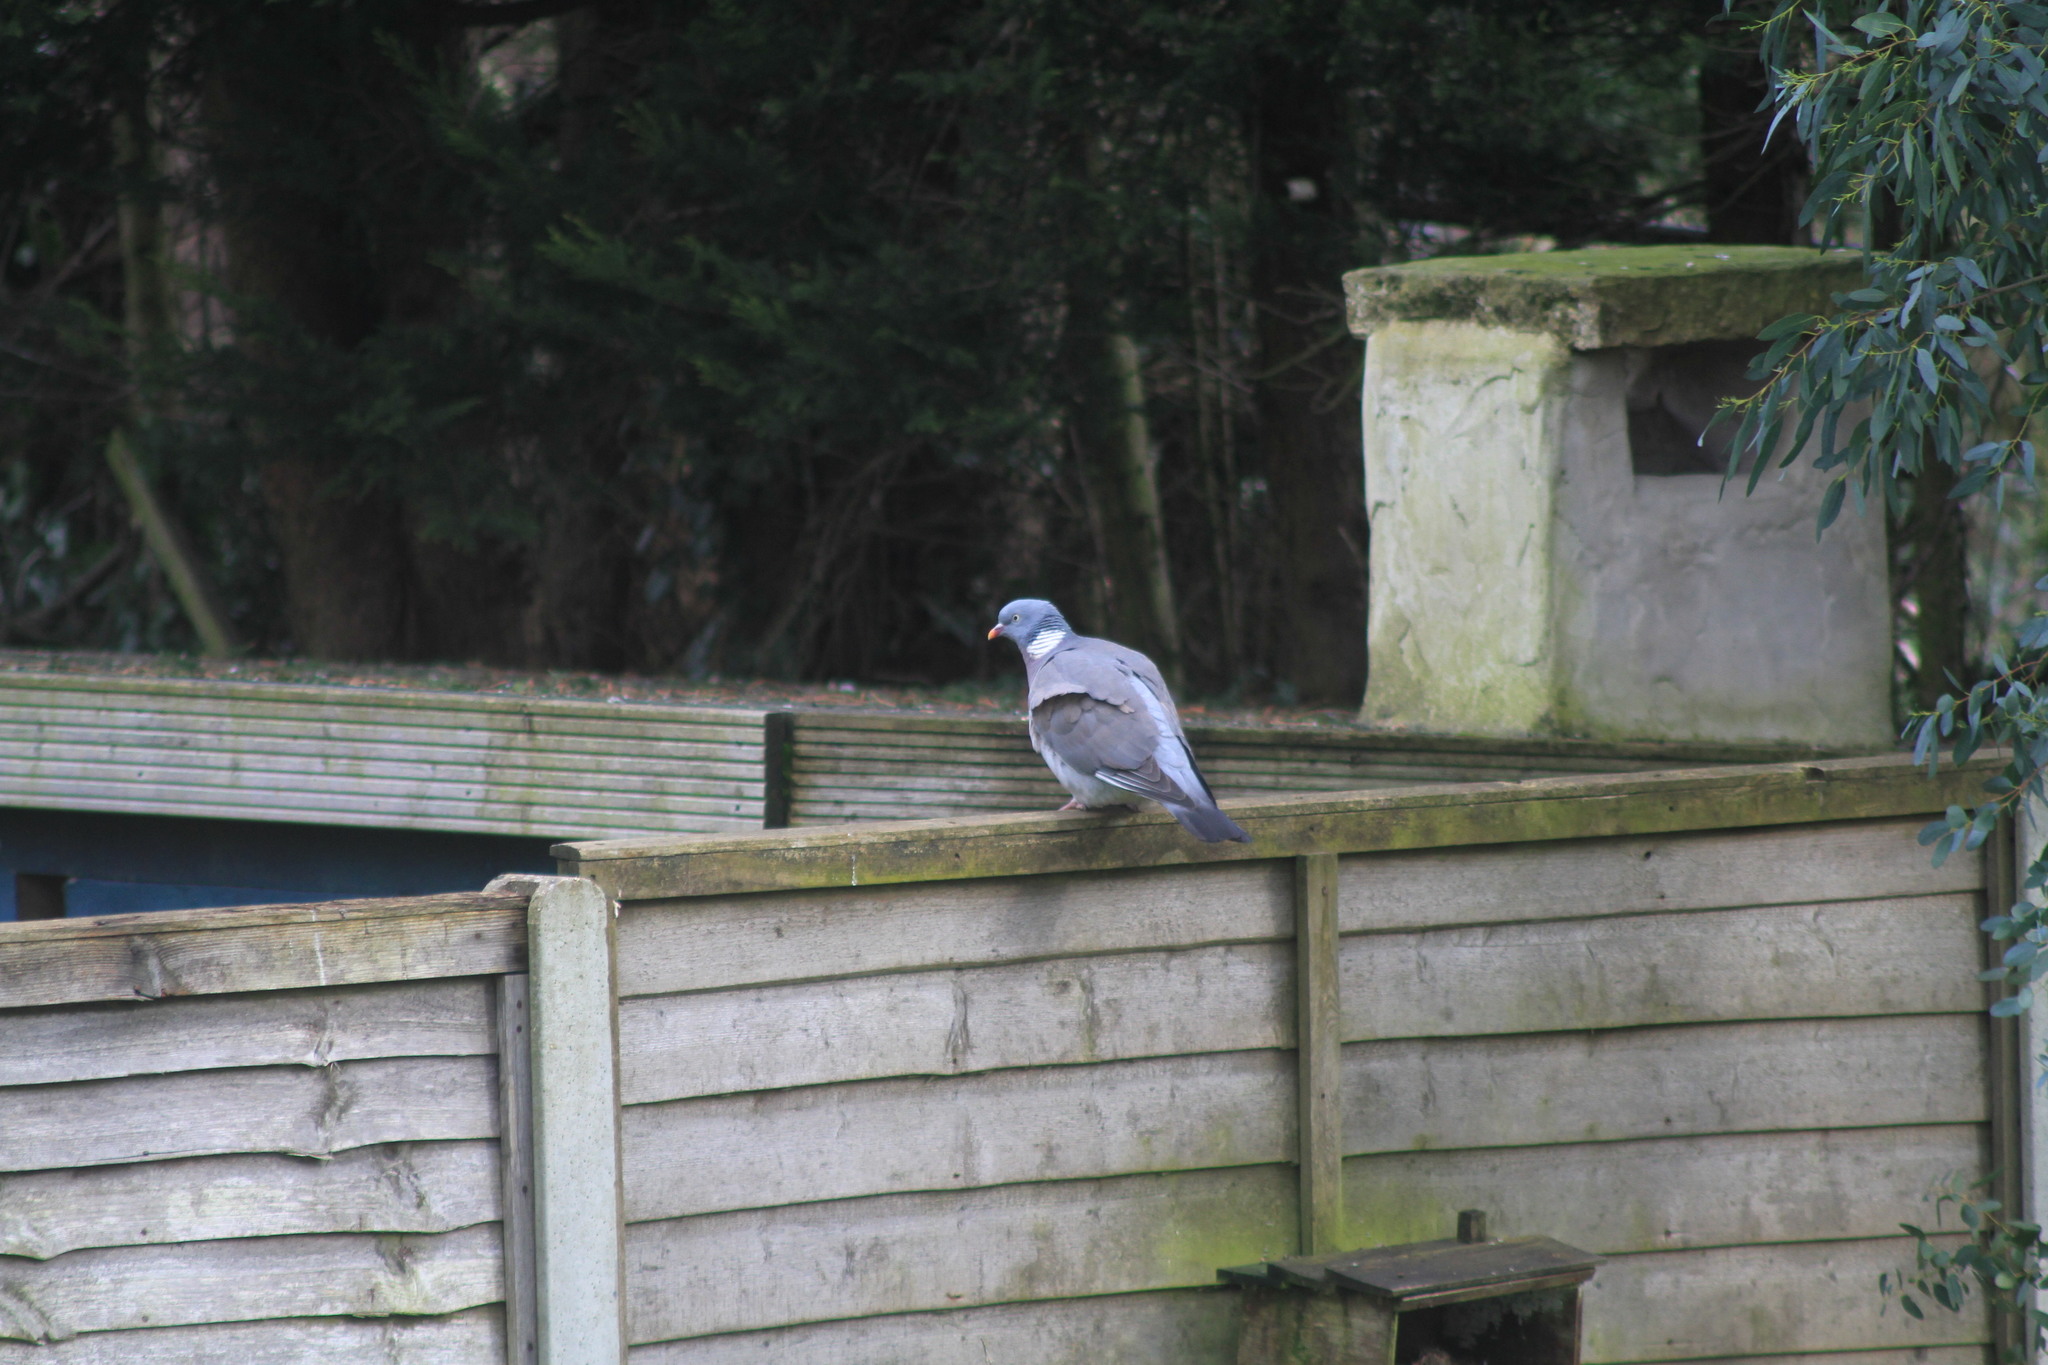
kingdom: Animalia
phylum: Chordata
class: Aves
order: Columbiformes
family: Columbidae
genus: Columba
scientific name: Columba palumbus
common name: Common wood pigeon
